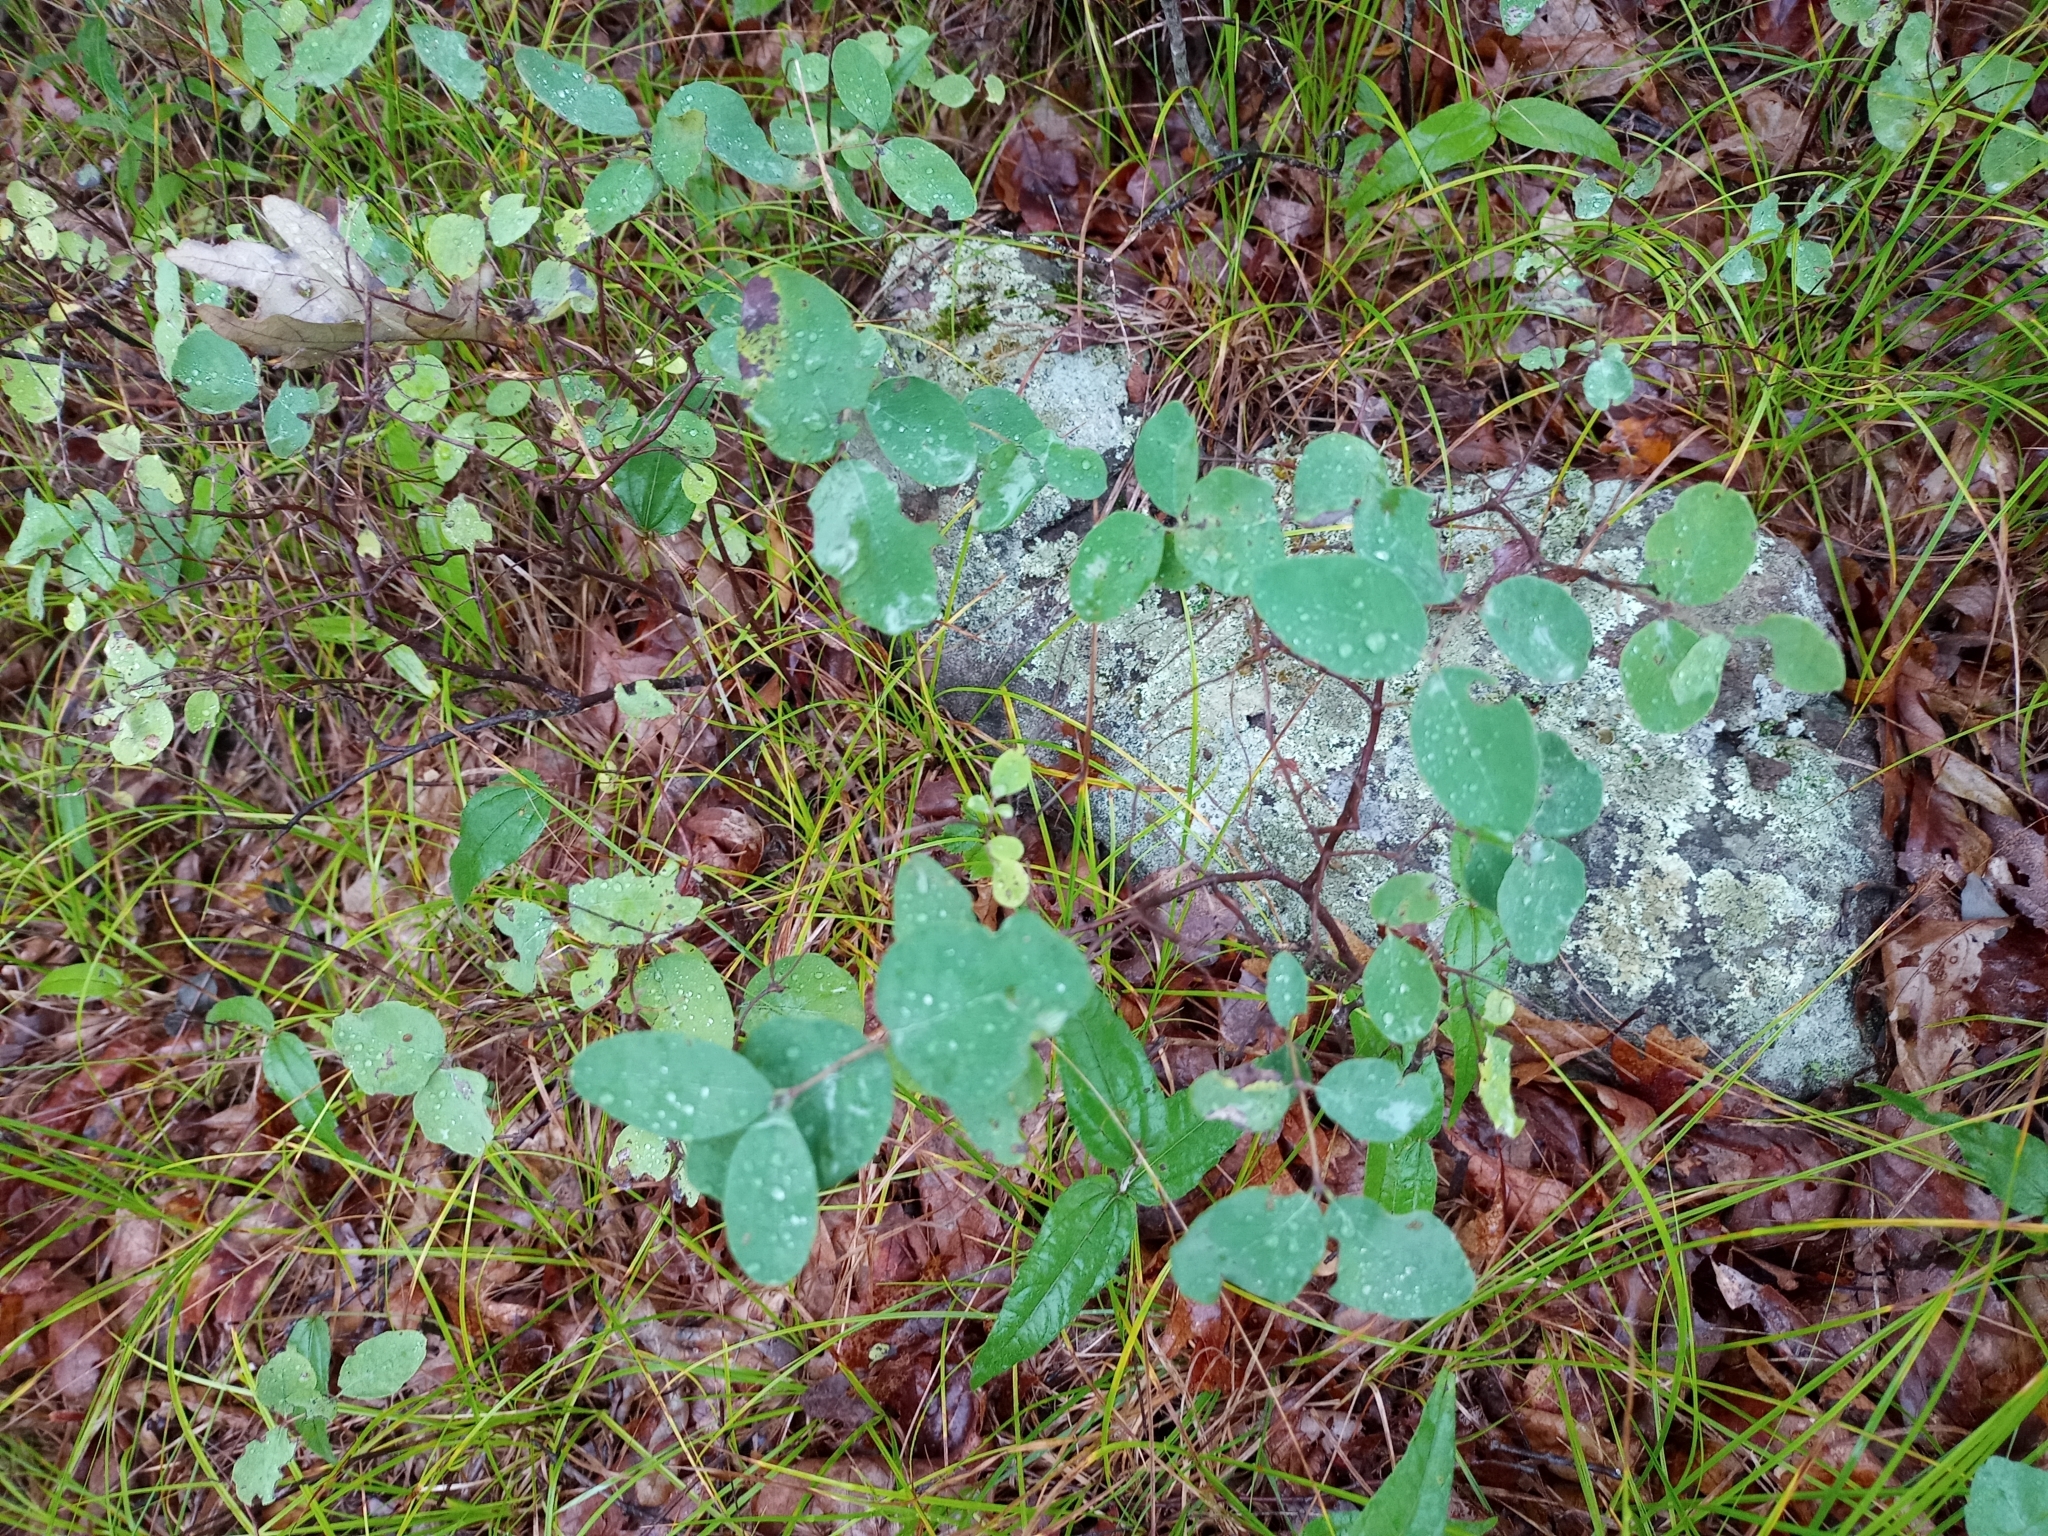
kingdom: Plantae
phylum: Tracheophyta
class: Magnoliopsida
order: Dipsacales
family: Caprifoliaceae
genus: Symphoricarpos
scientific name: Symphoricarpos albus
